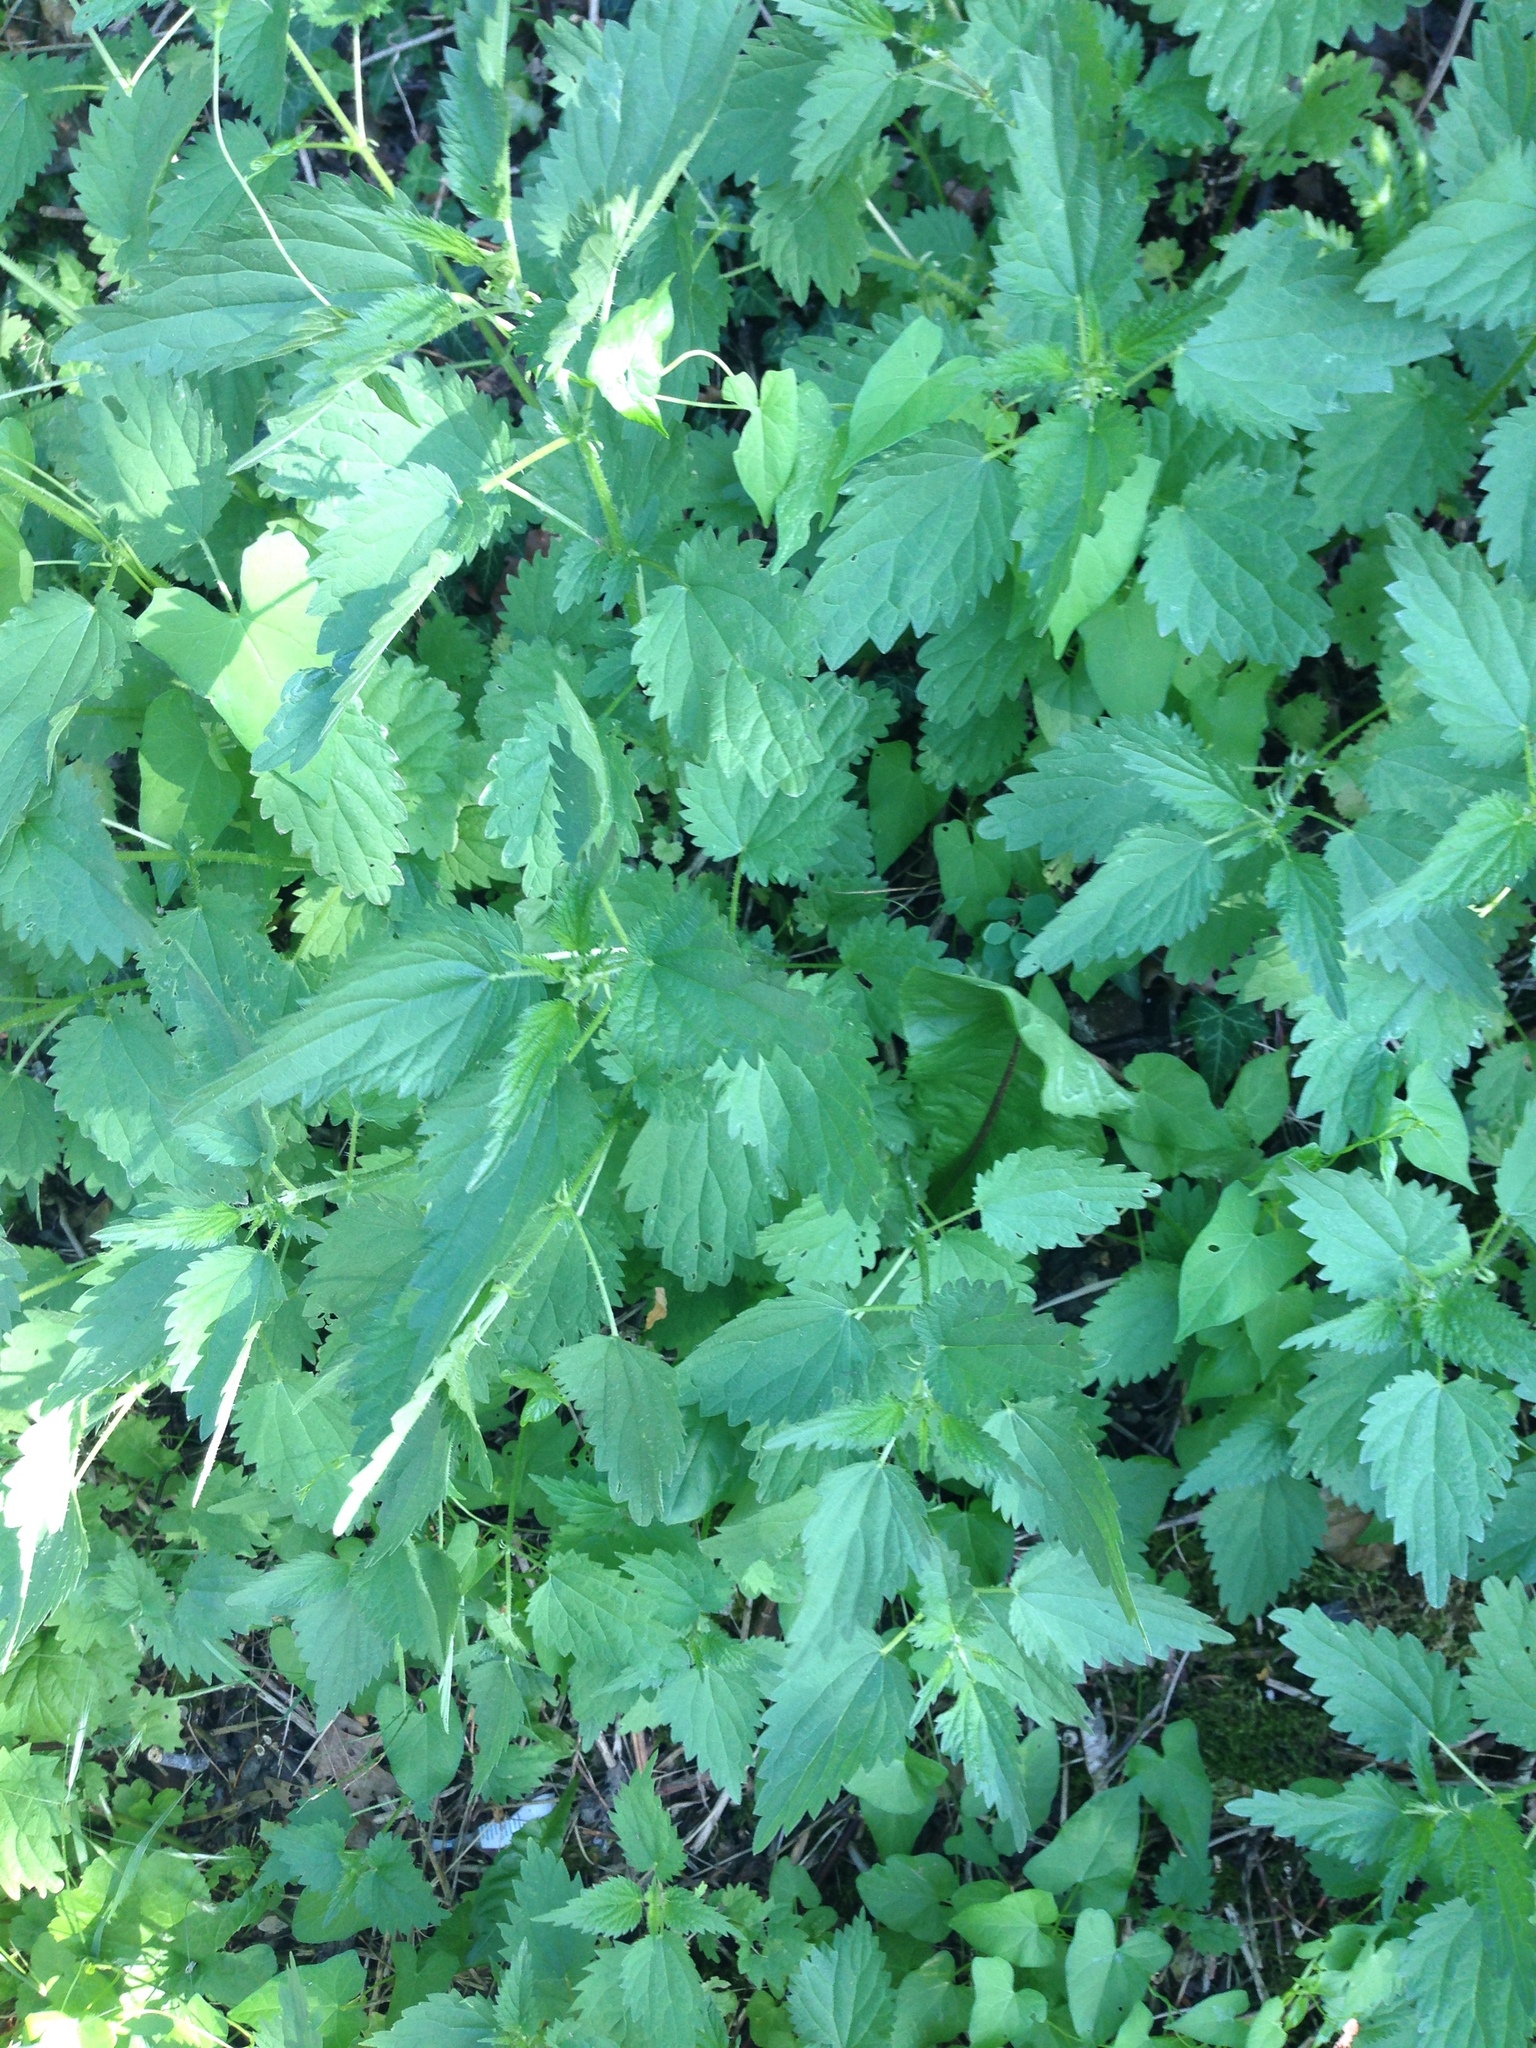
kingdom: Plantae
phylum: Tracheophyta
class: Magnoliopsida
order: Rosales
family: Urticaceae
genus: Urtica
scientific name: Urtica dioica
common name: Common nettle
